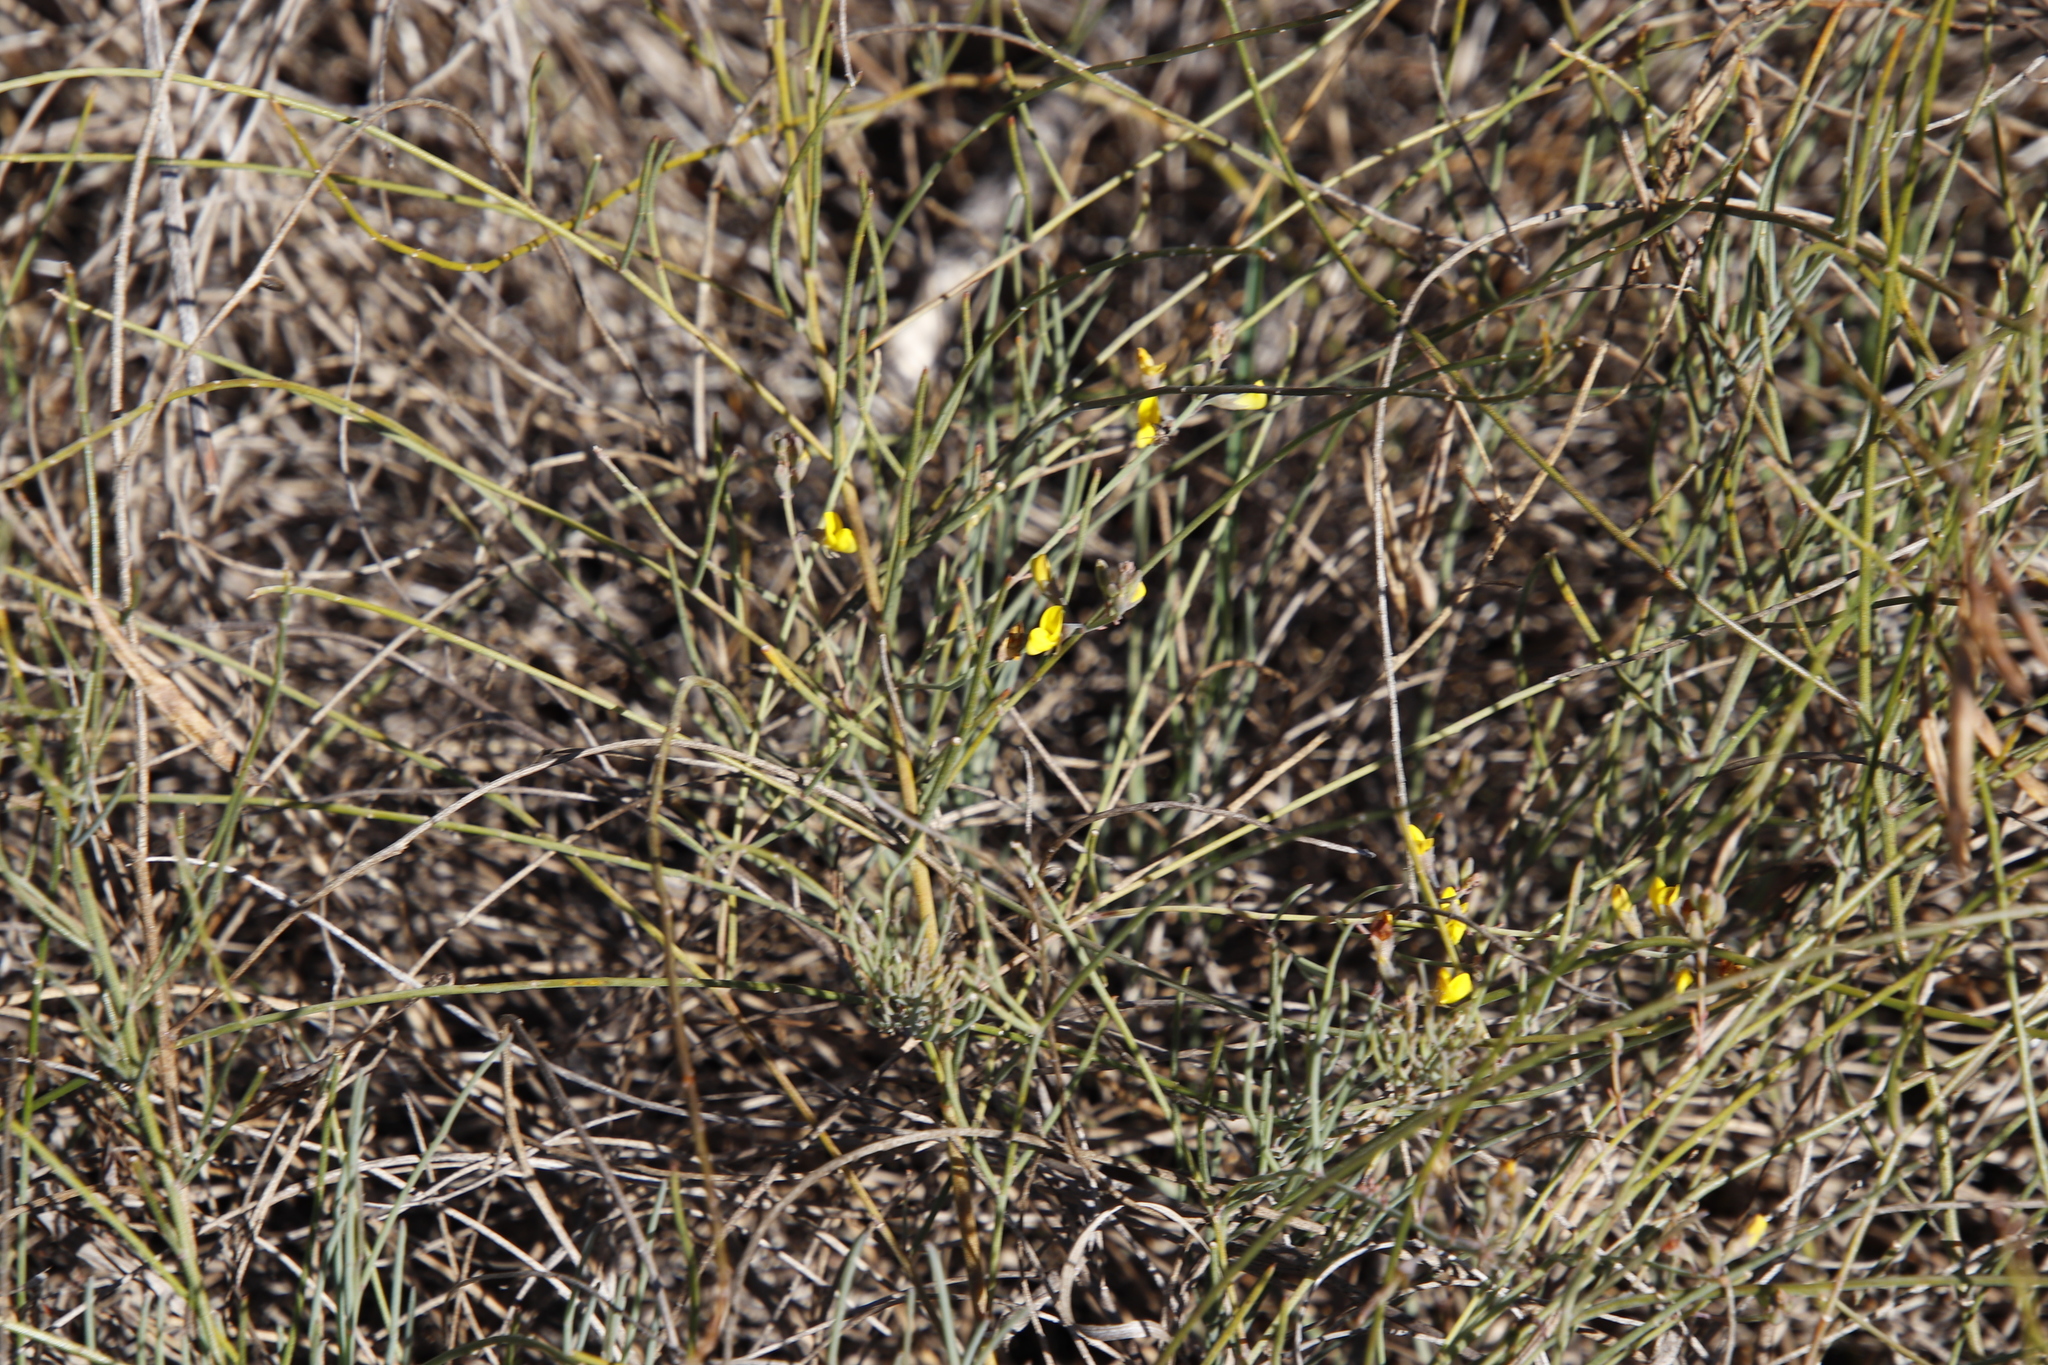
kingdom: Plantae
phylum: Tracheophyta
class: Magnoliopsida
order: Fabales
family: Fabaceae
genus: Lebeckia
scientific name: Lebeckia contaminata
